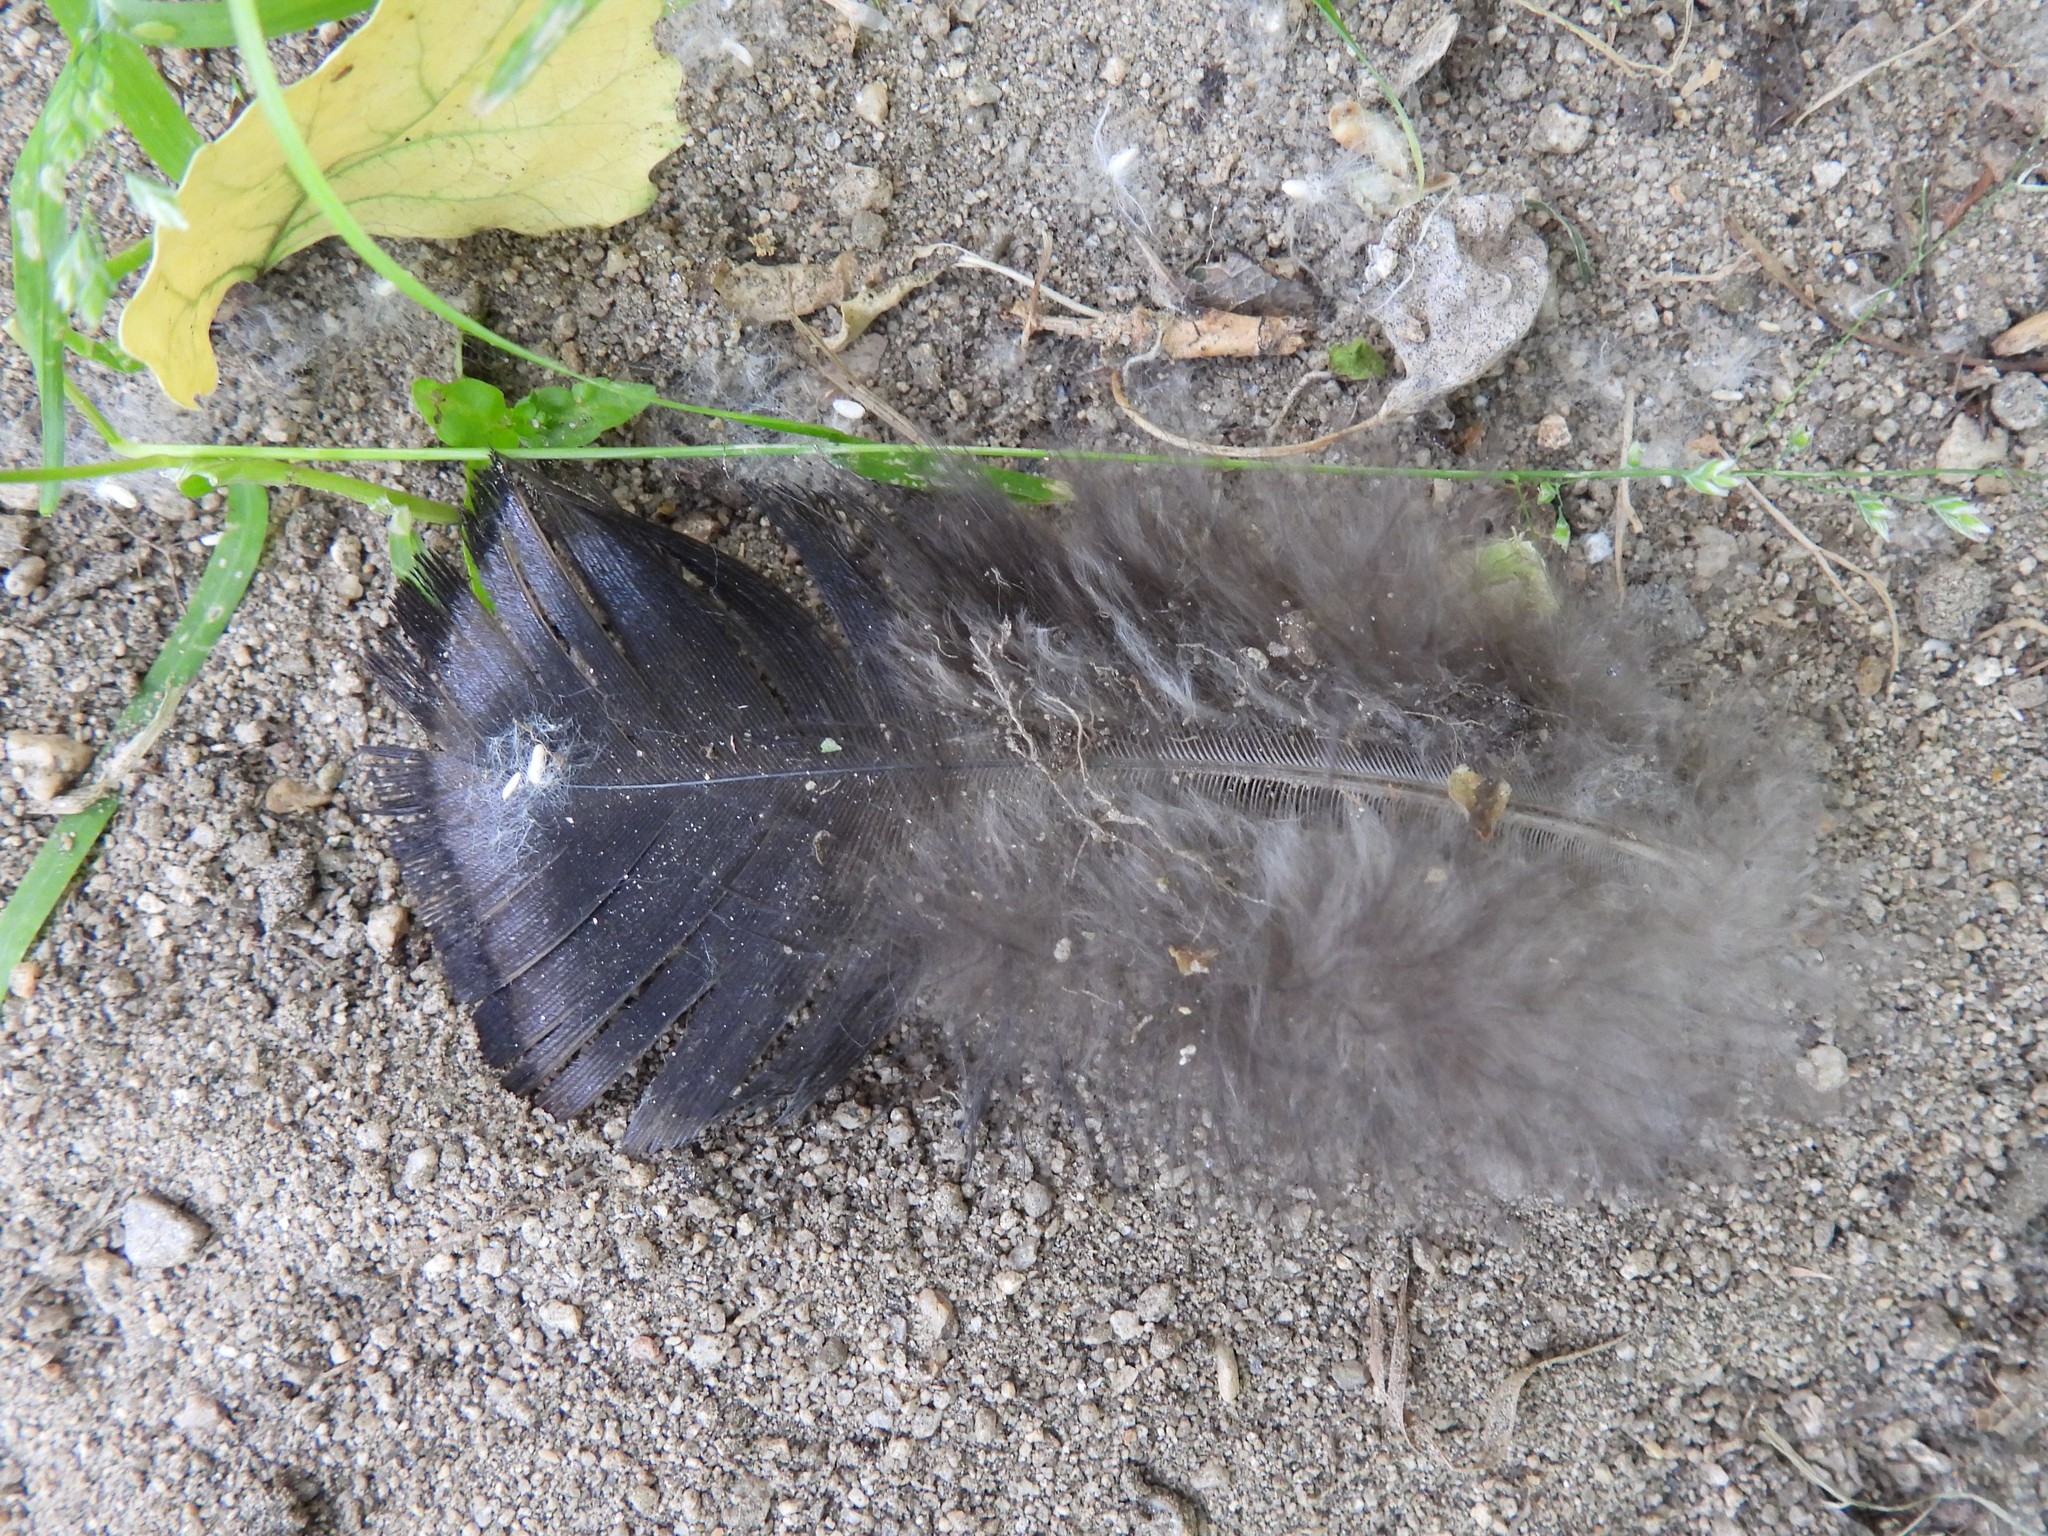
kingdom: Animalia
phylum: Chordata
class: Aves
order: Galliformes
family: Phasianidae
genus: Meleagris
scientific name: Meleagris gallopavo
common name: Wild turkey
